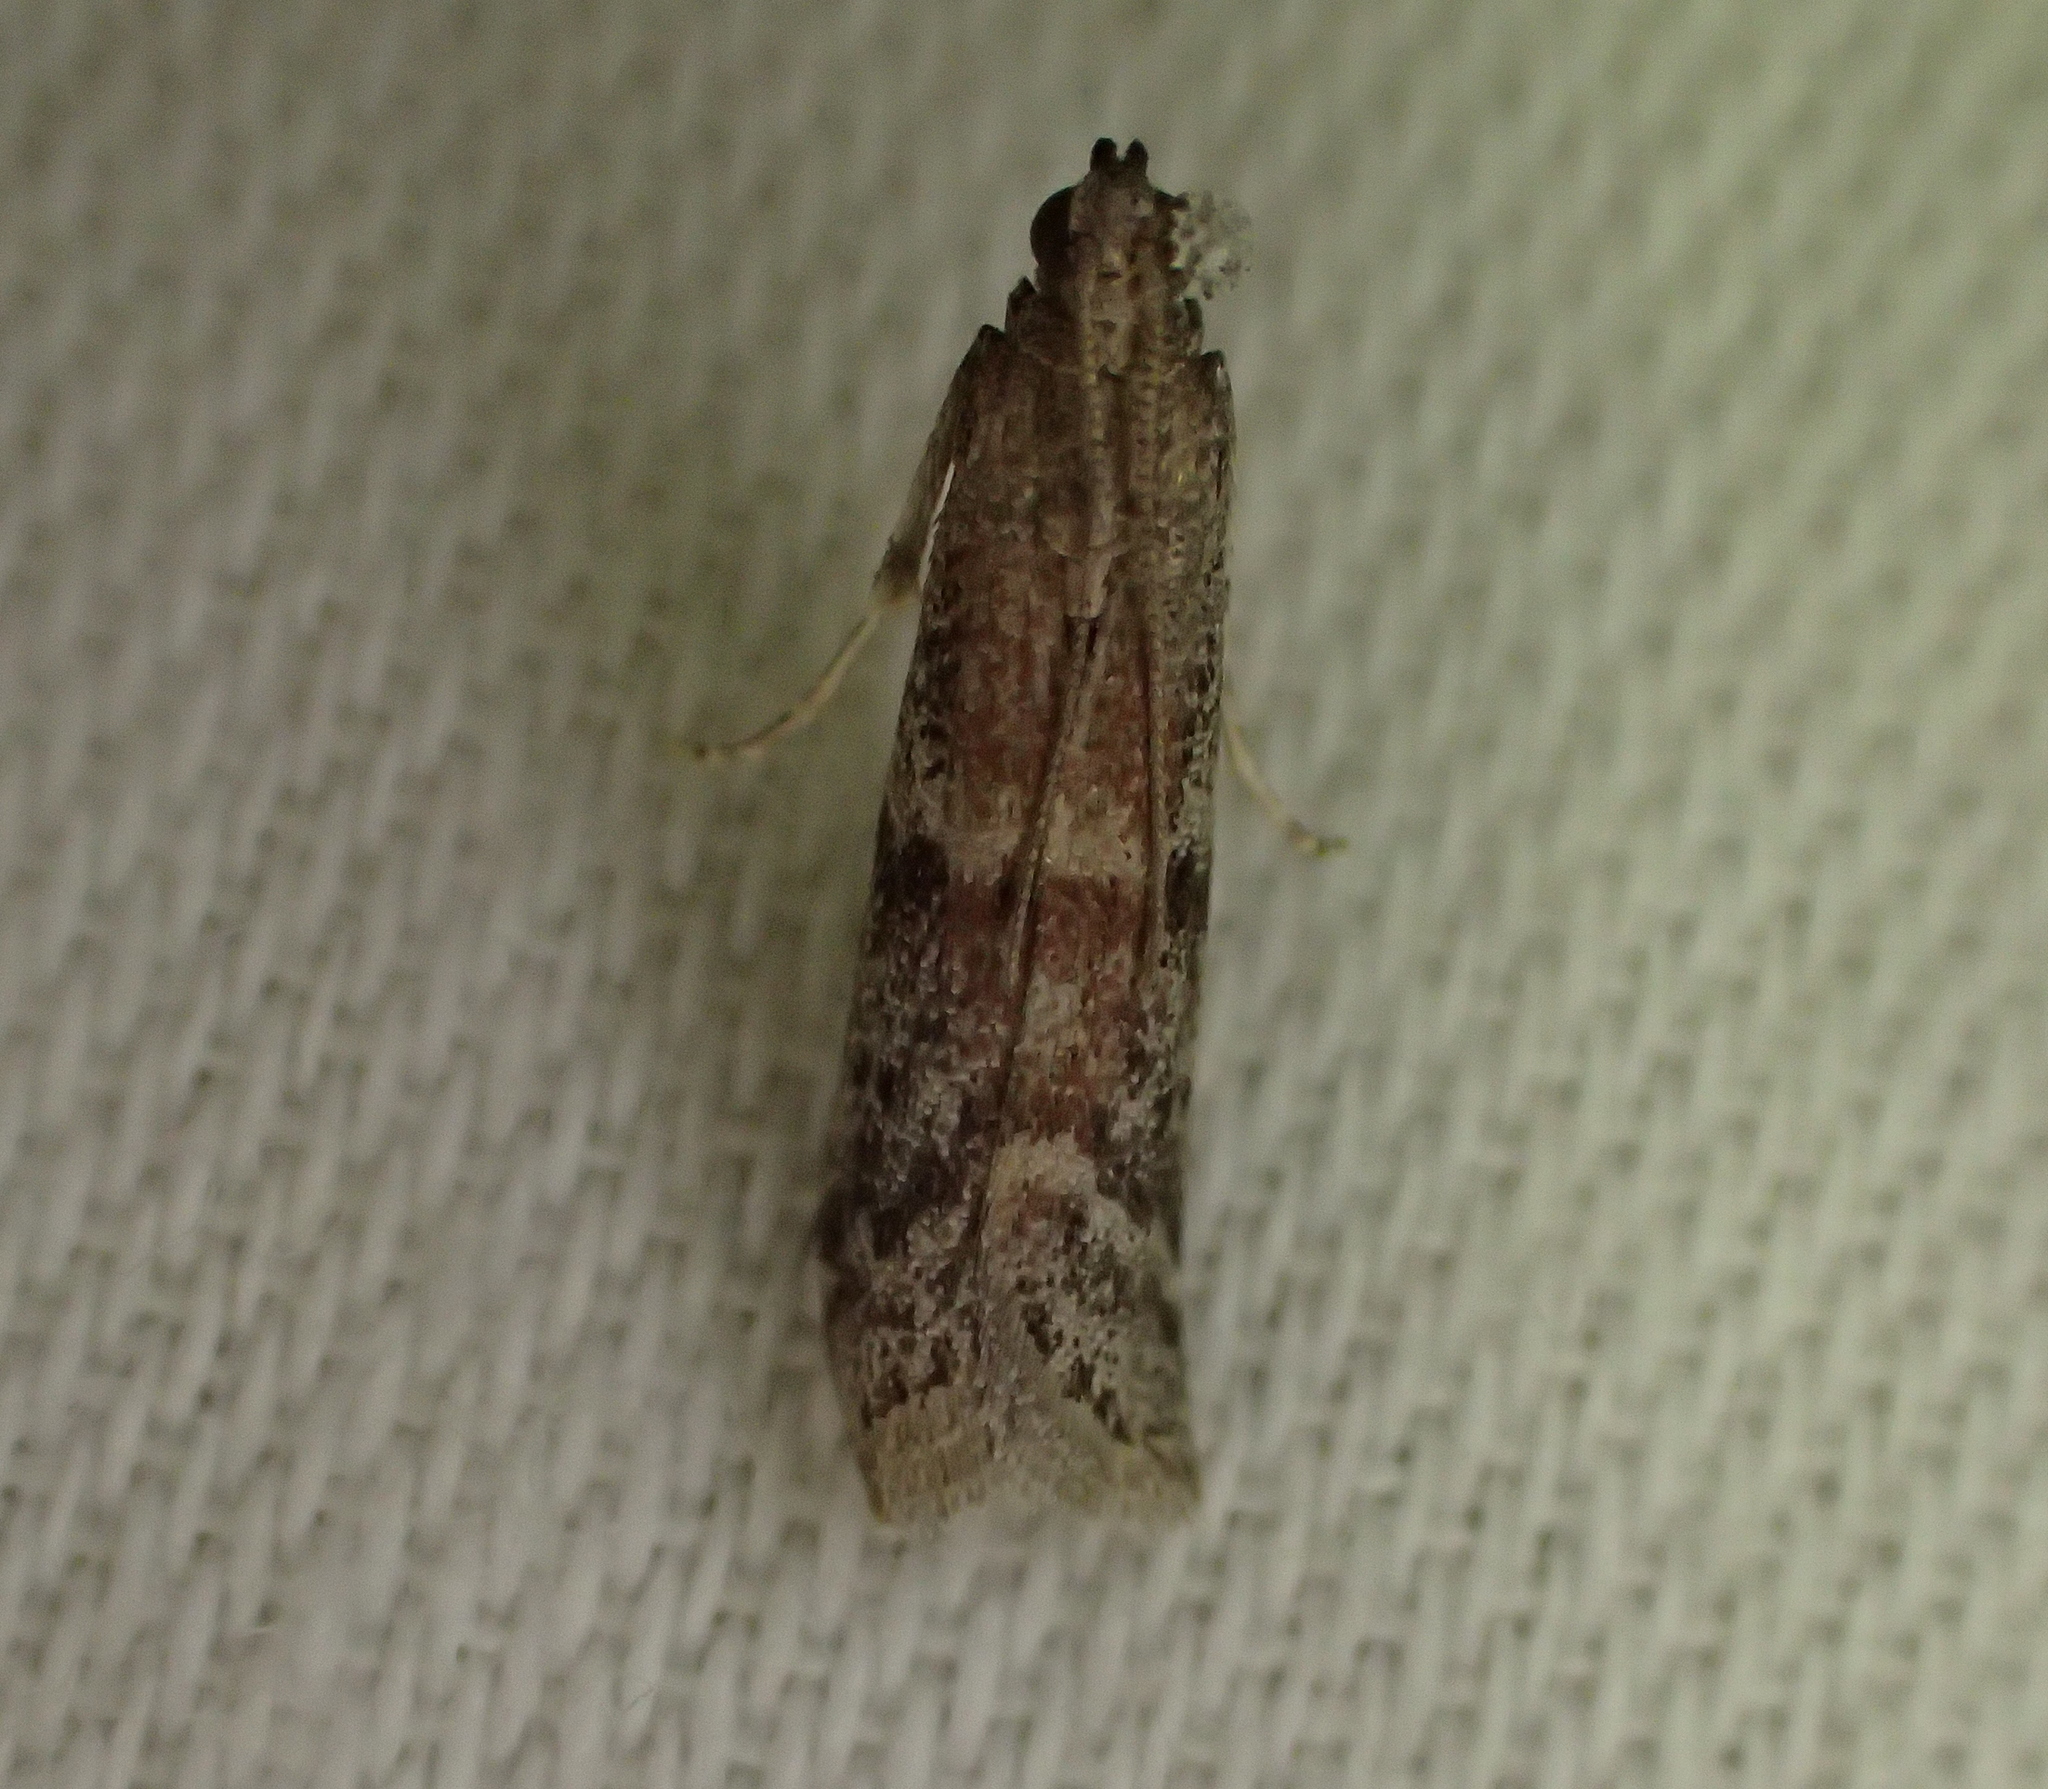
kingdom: Animalia
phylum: Arthropoda
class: Insecta
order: Lepidoptera
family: Pyralidae
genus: Ephestia
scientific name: Ephestia woodiella
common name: False cacao moth
